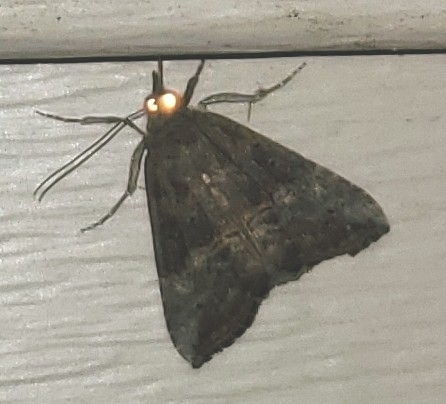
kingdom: Animalia
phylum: Arthropoda
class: Insecta
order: Lepidoptera
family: Erebidae
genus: Hypena
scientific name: Hypena scabra
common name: Green cloverworm
